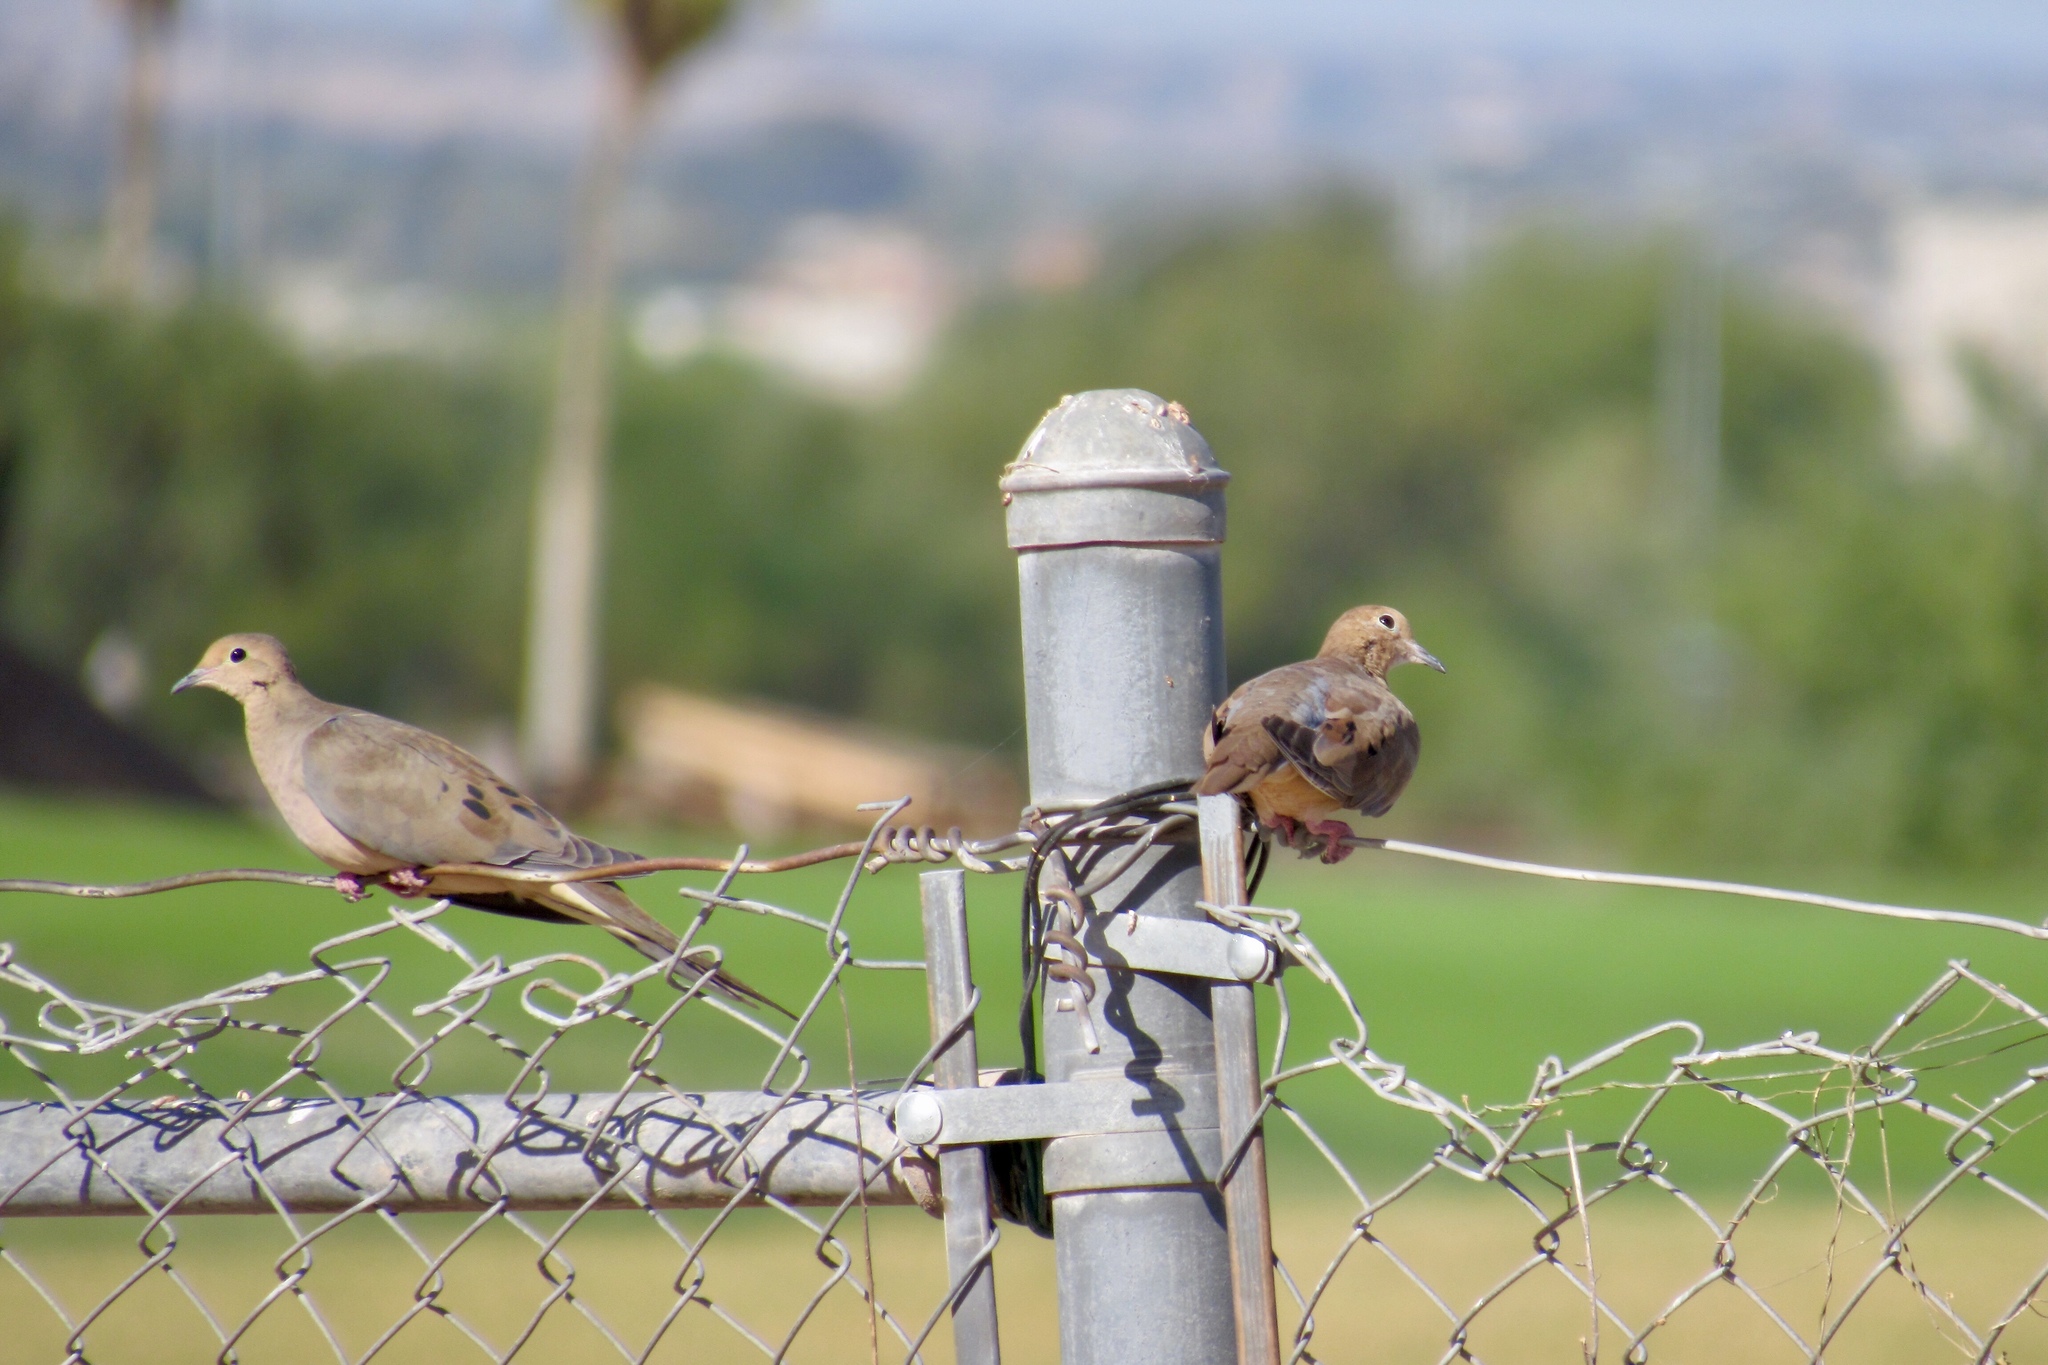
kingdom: Animalia
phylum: Chordata
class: Aves
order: Columbiformes
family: Columbidae
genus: Zenaida
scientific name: Zenaida macroura
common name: Mourning dove
